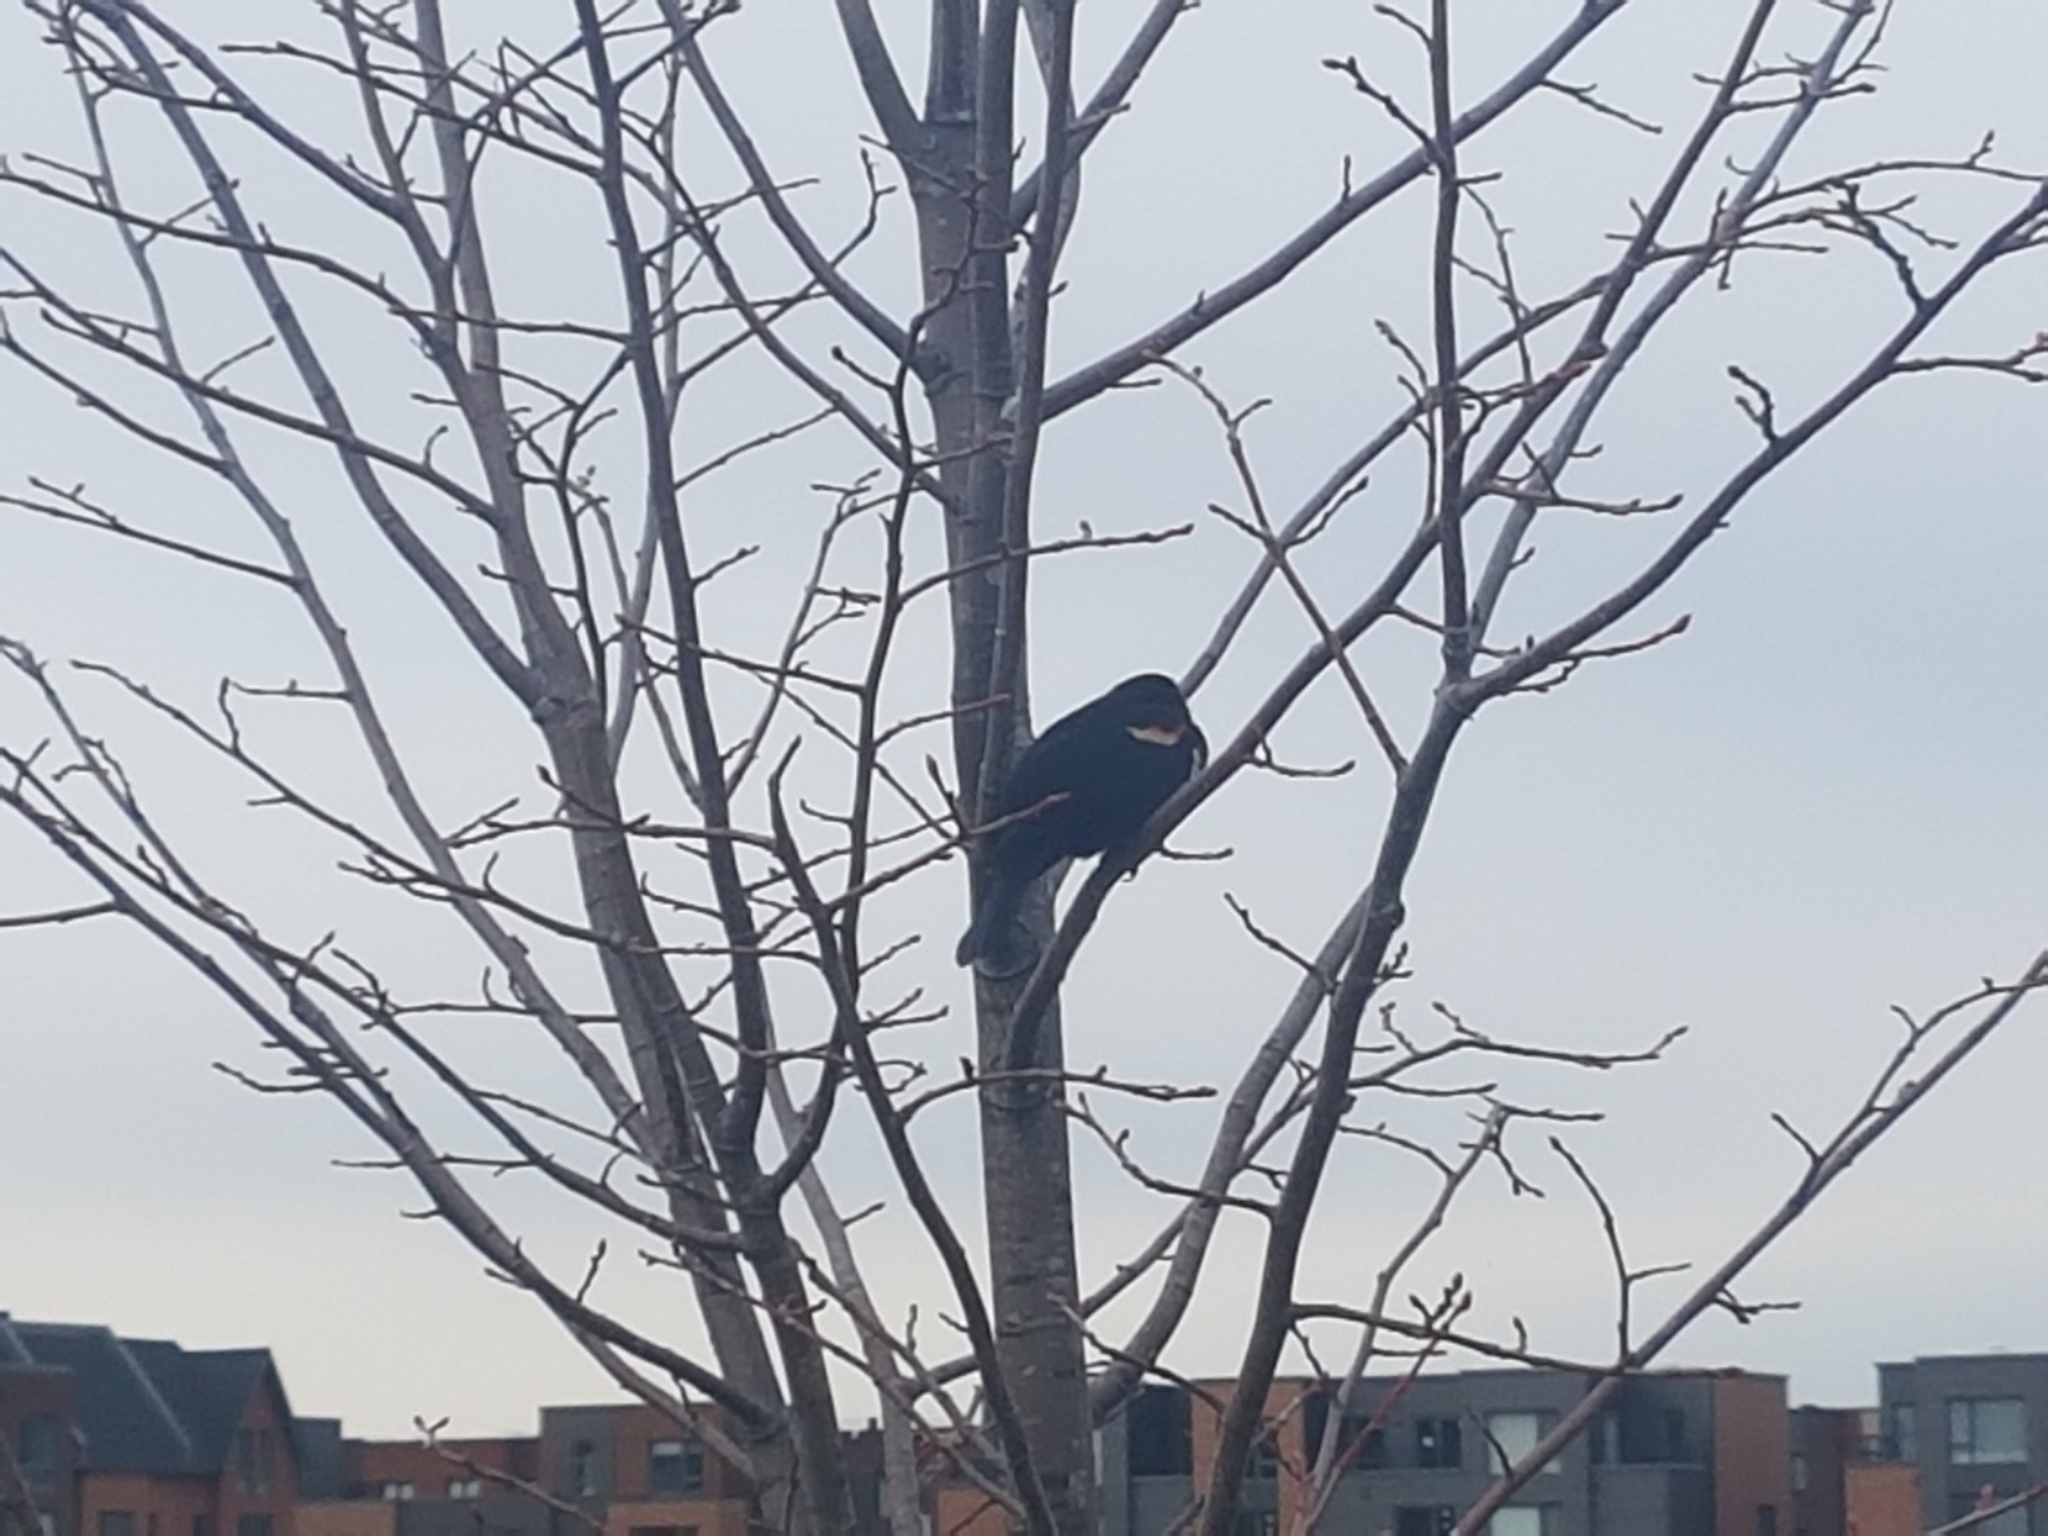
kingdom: Animalia
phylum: Chordata
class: Aves
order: Passeriformes
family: Icteridae
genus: Agelaius
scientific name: Agelaius phoeniceus
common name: Red-winged blackbird
